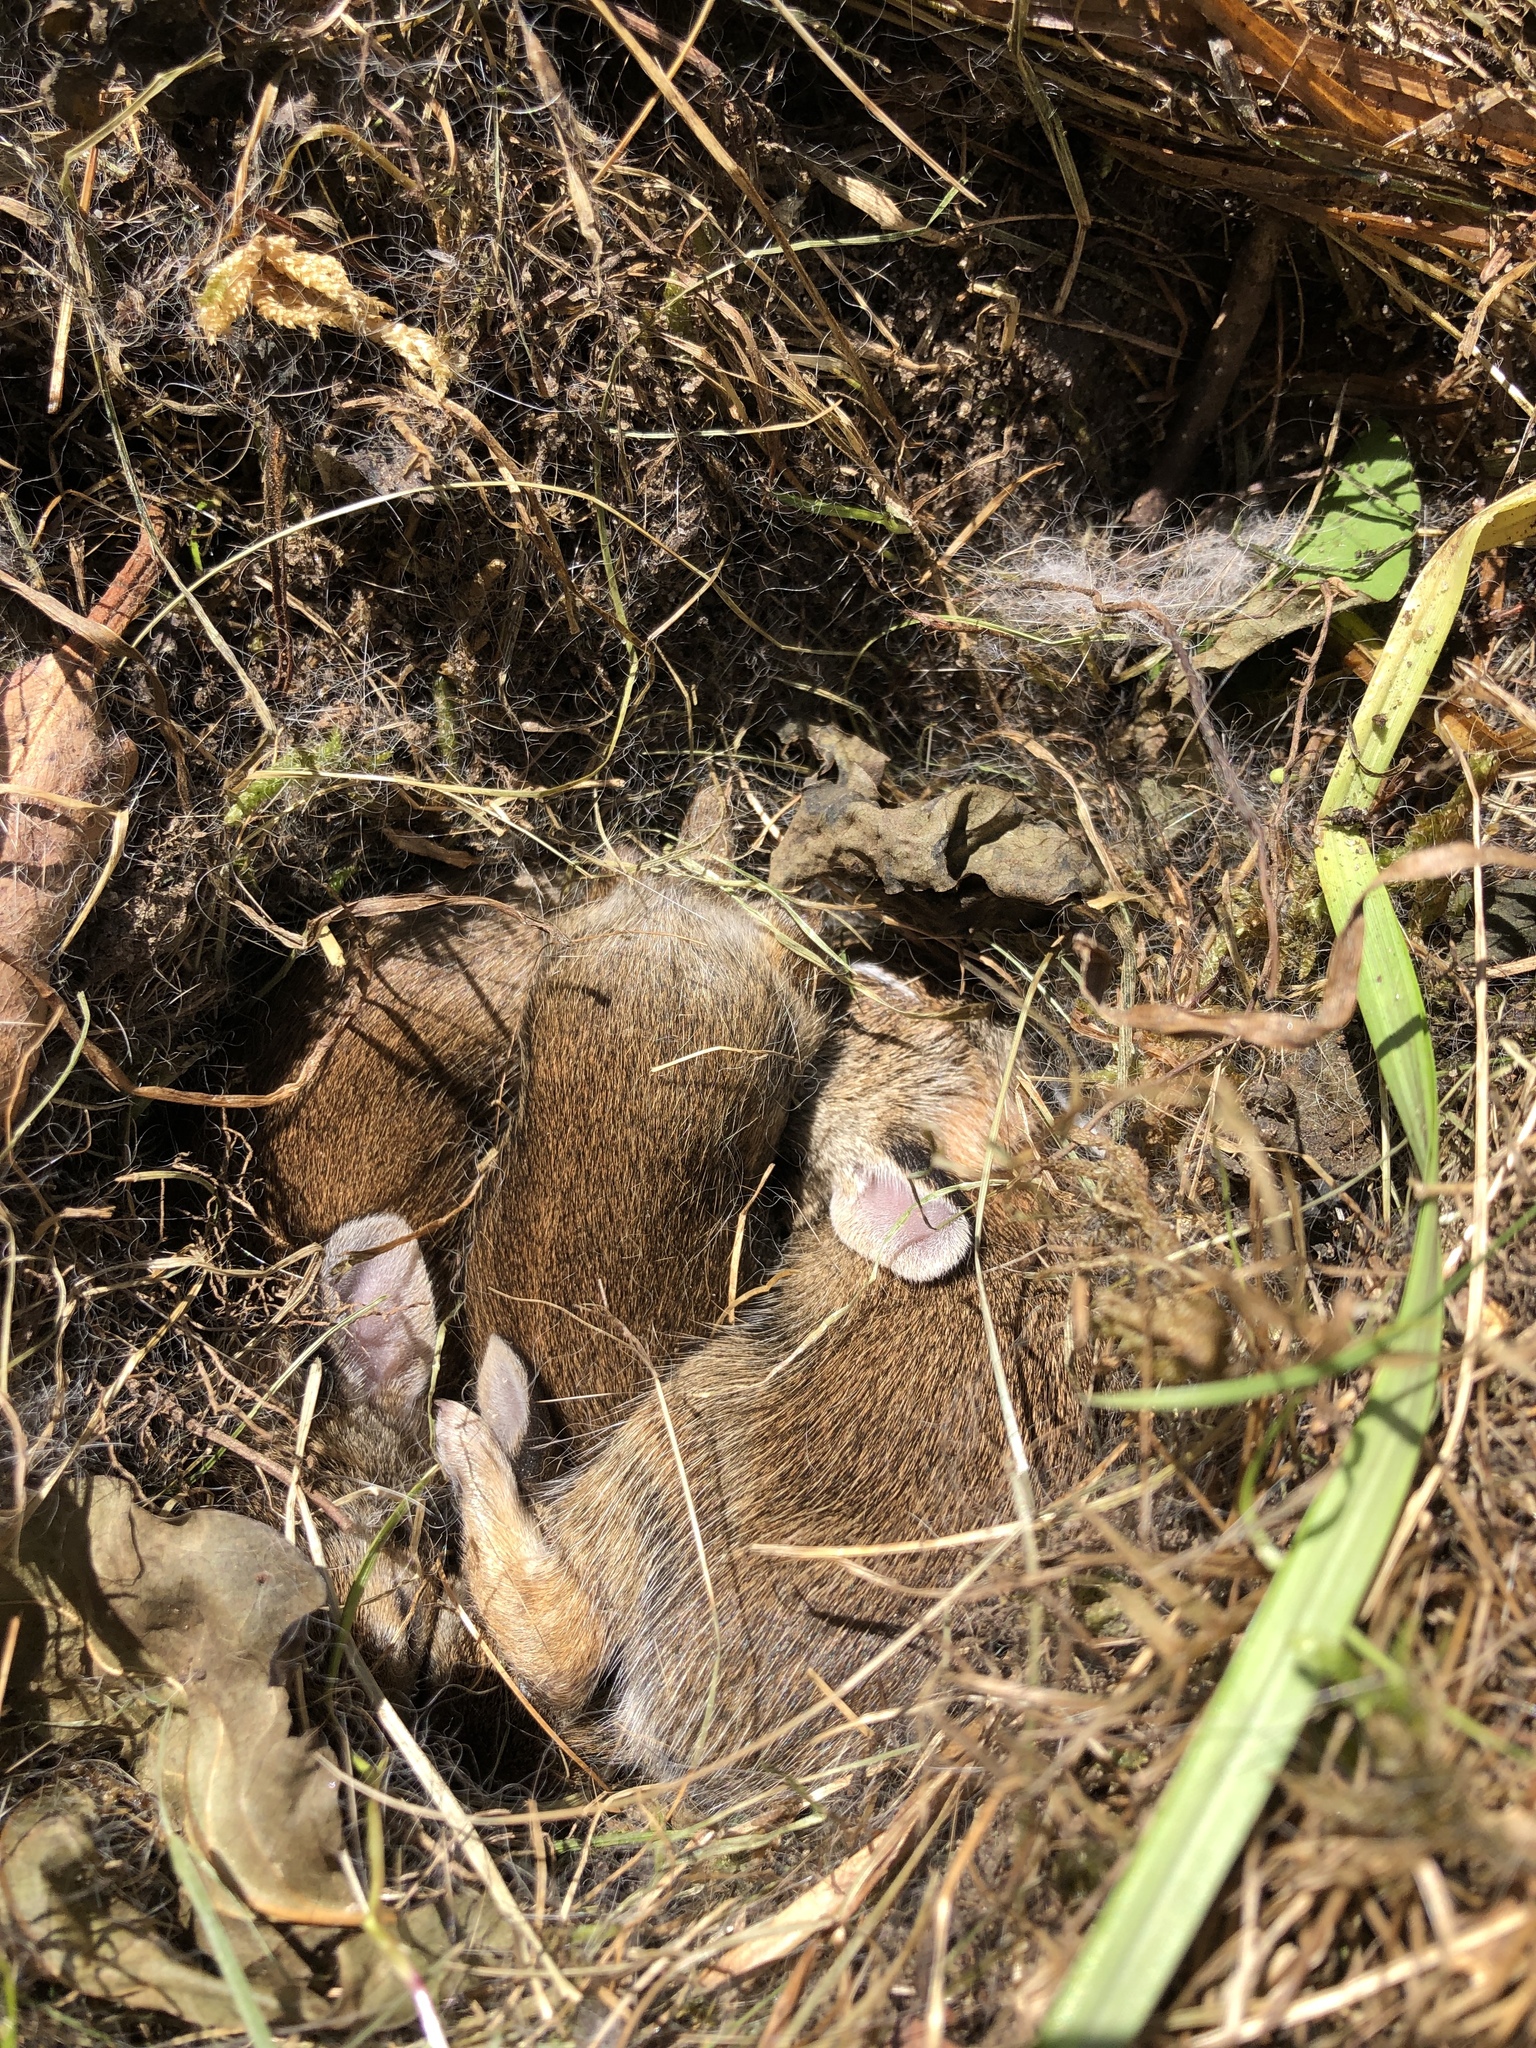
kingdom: Animalia
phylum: Chordata
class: Mammalia
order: Lagomorpha
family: Leporidae
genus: Sylvilagus
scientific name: Sylvilagus floridanus
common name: Eastern cottontail
